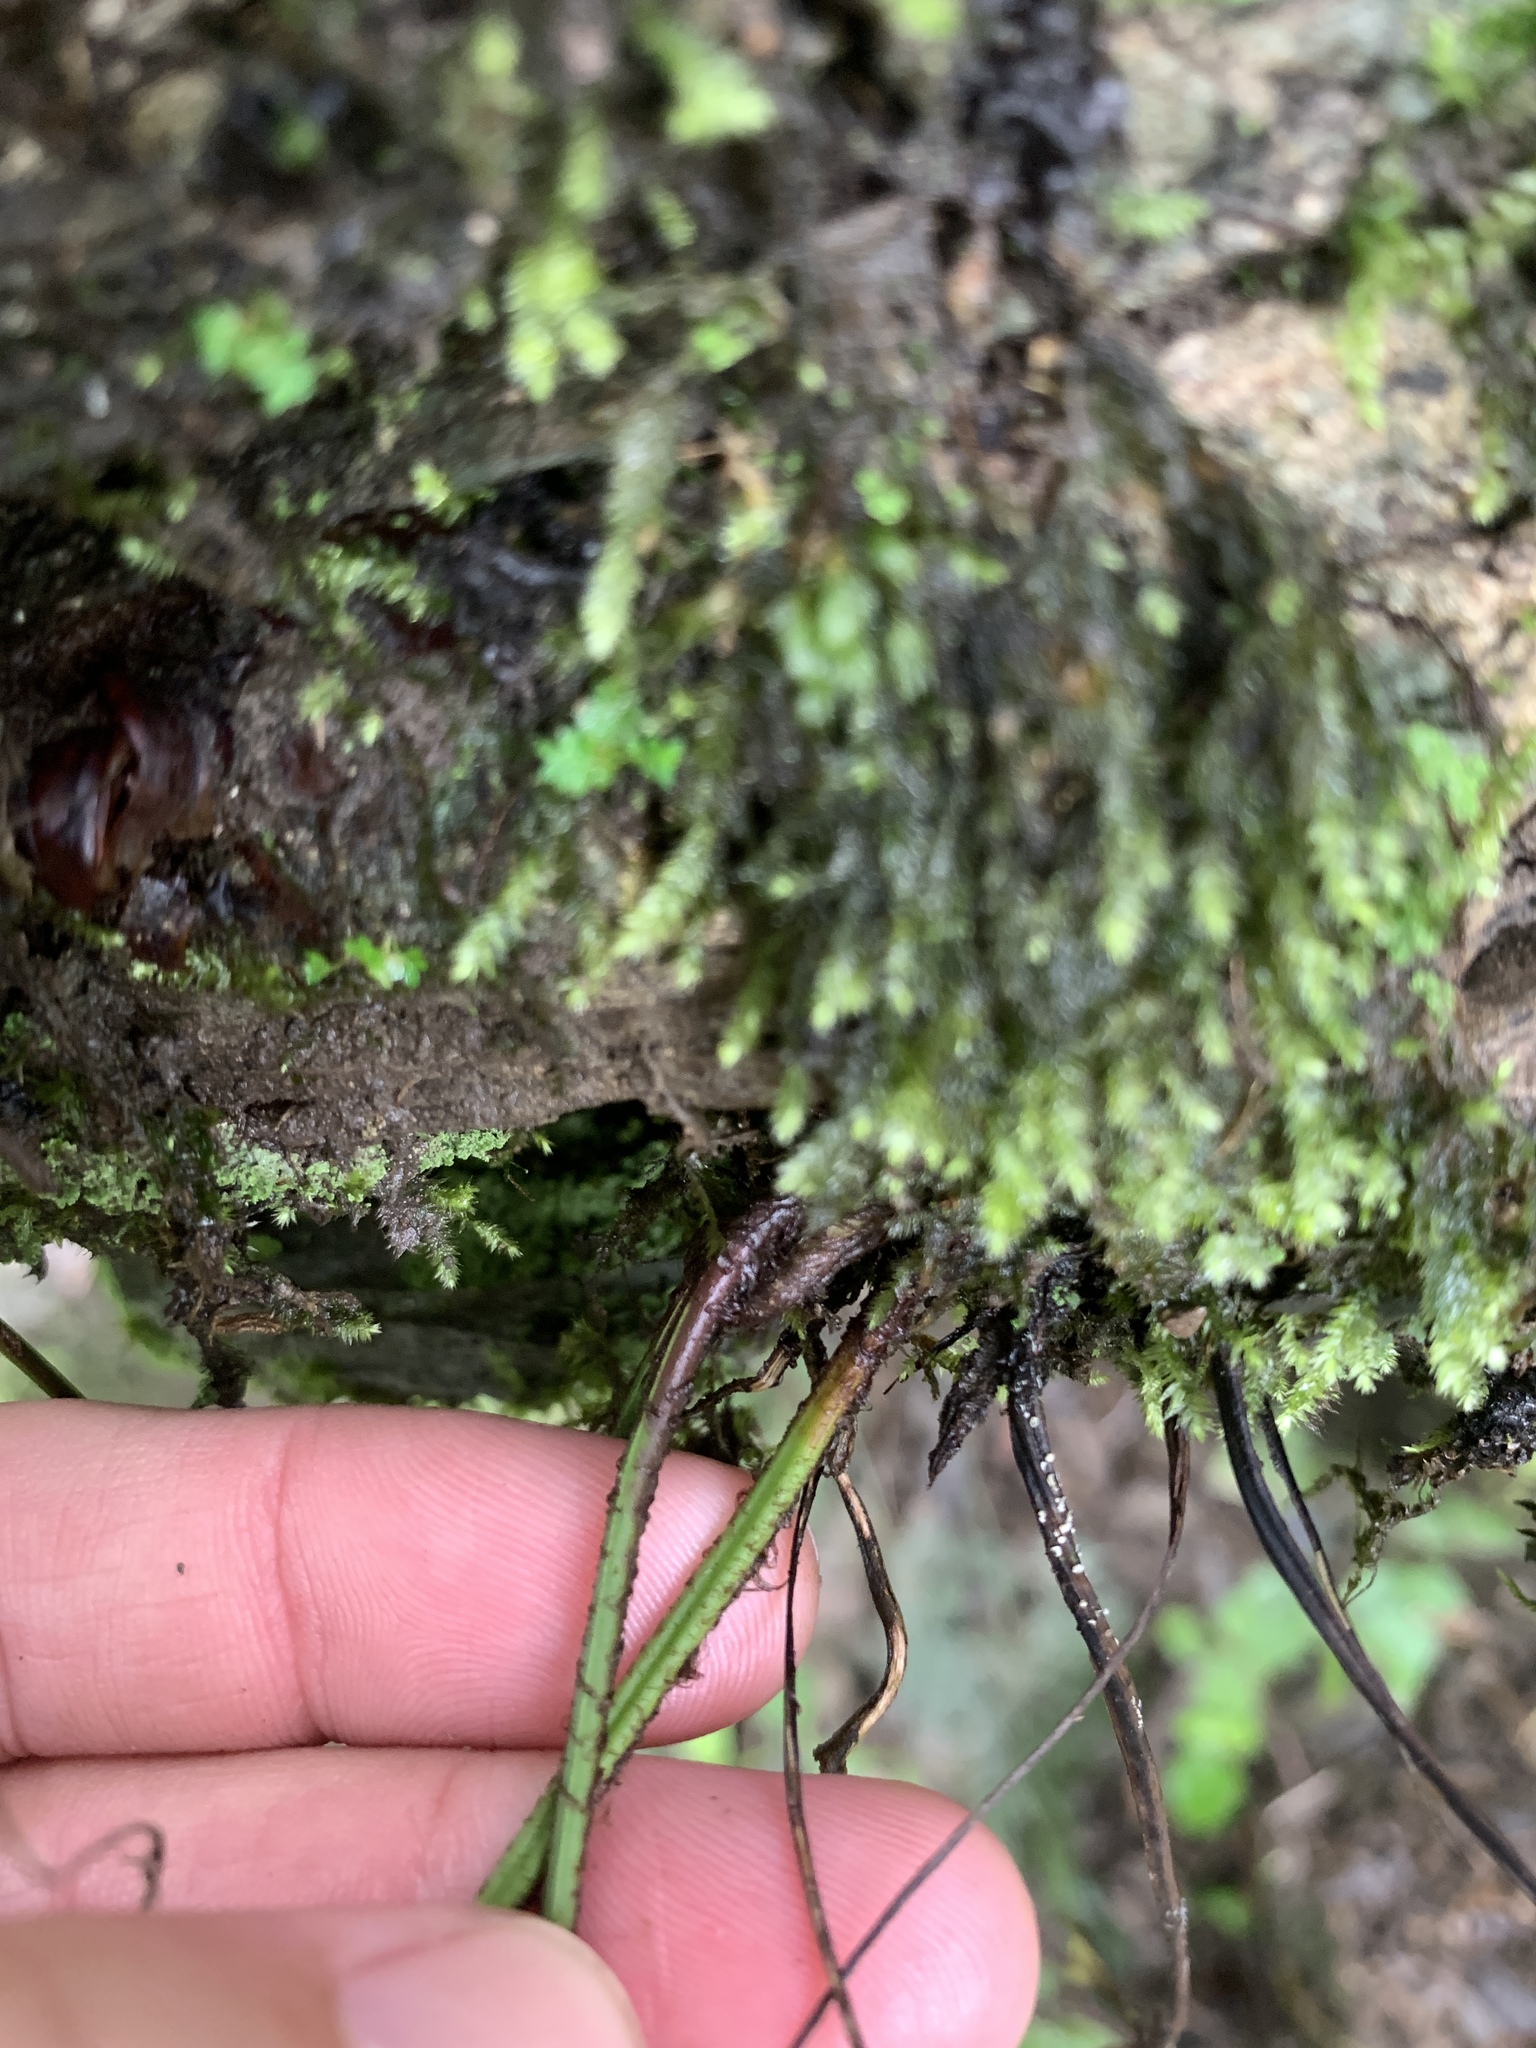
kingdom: Plantae
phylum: Tracheophyta
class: Polypodiopsida
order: Polypodiales
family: Aspleniaceae
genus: Asplenium
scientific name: Asplenium austrochinense
